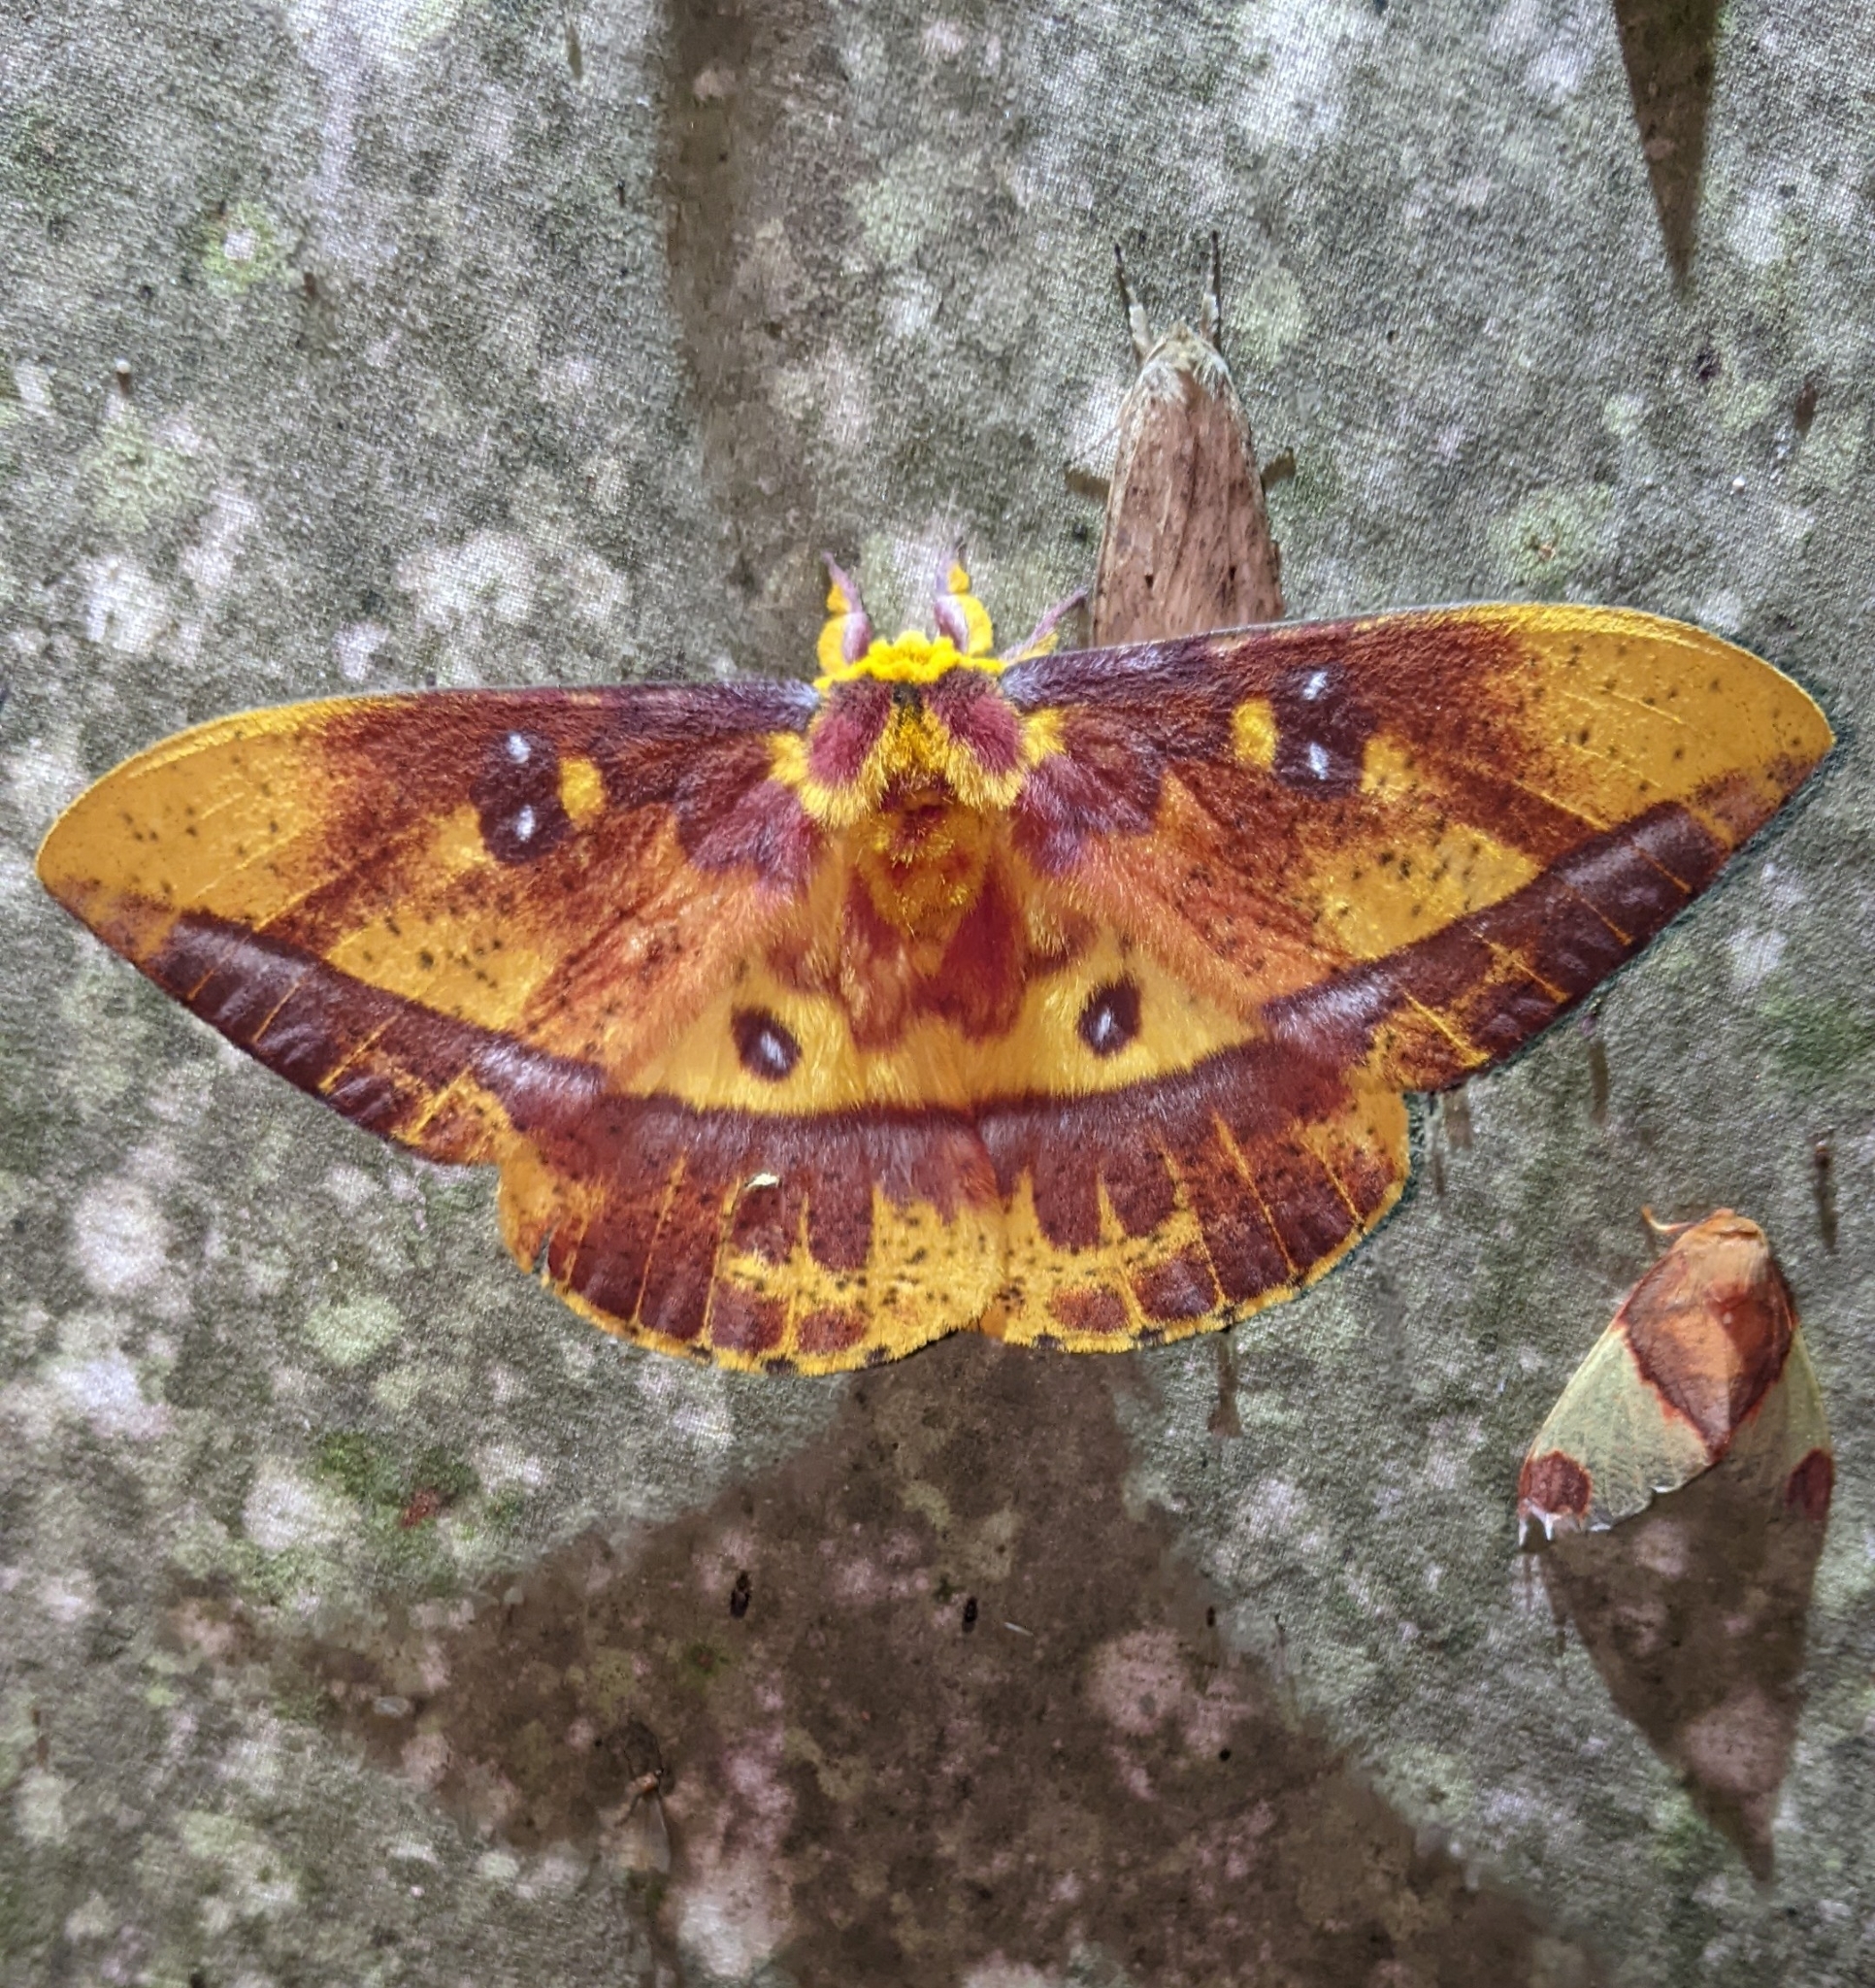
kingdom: Animalia
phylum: Arthropoda
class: Insecta
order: Lepidoptera
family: Saturniidae
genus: Bathyphlebia
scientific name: Bathyphlebia eminens
